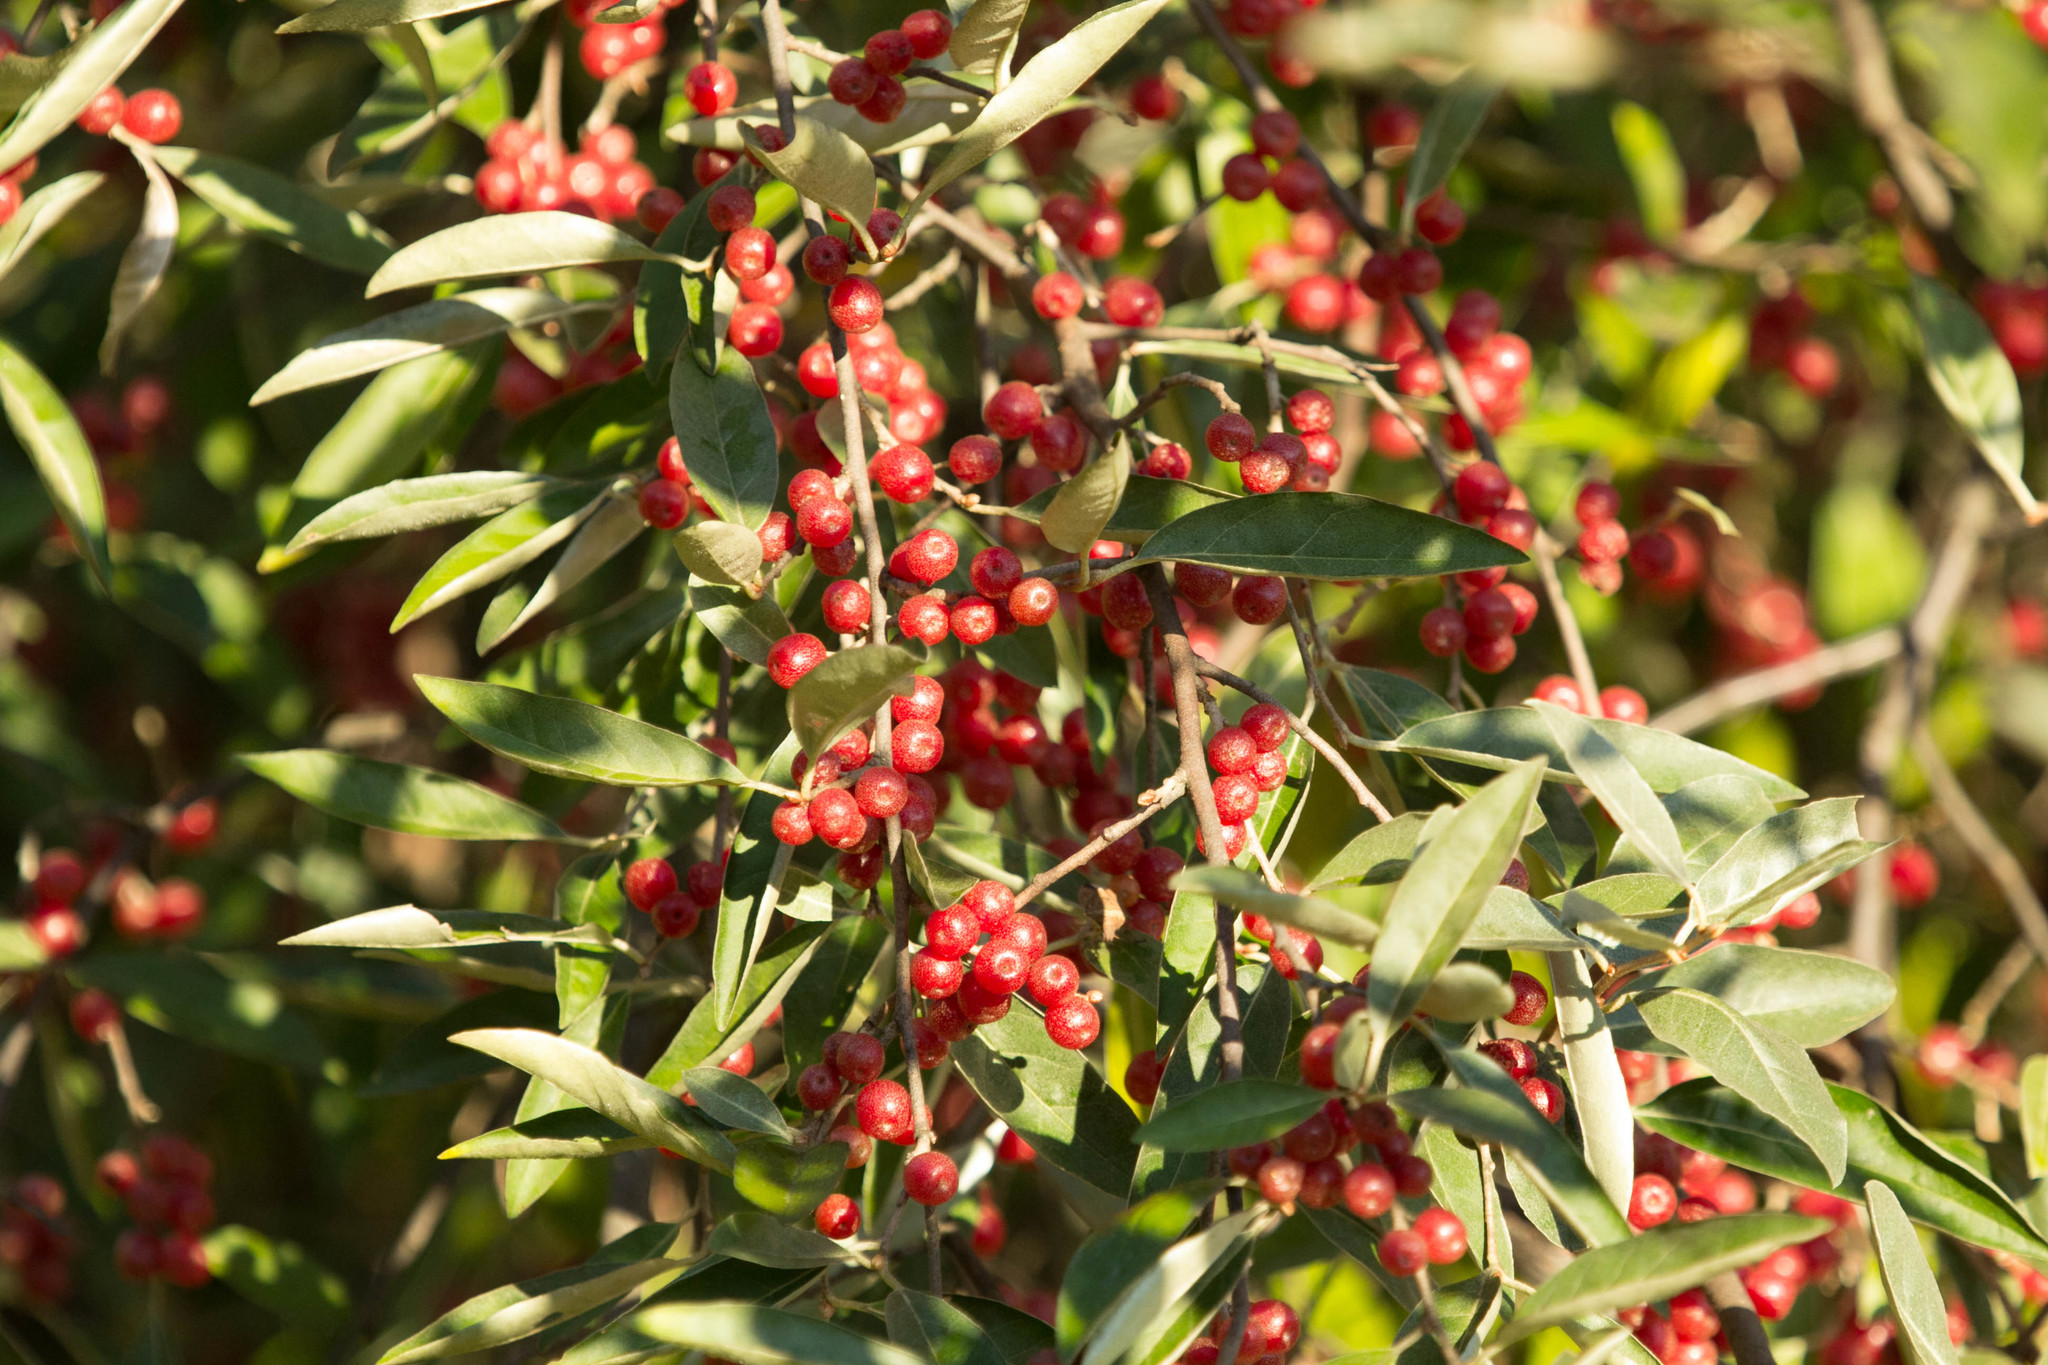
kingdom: Plantae
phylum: Tracheophyta
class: Magnoliopsida
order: Rosales
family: Elaeagnaceae
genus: Elaeagnus
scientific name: Elaeagnus umbellata
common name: Autumn olive
